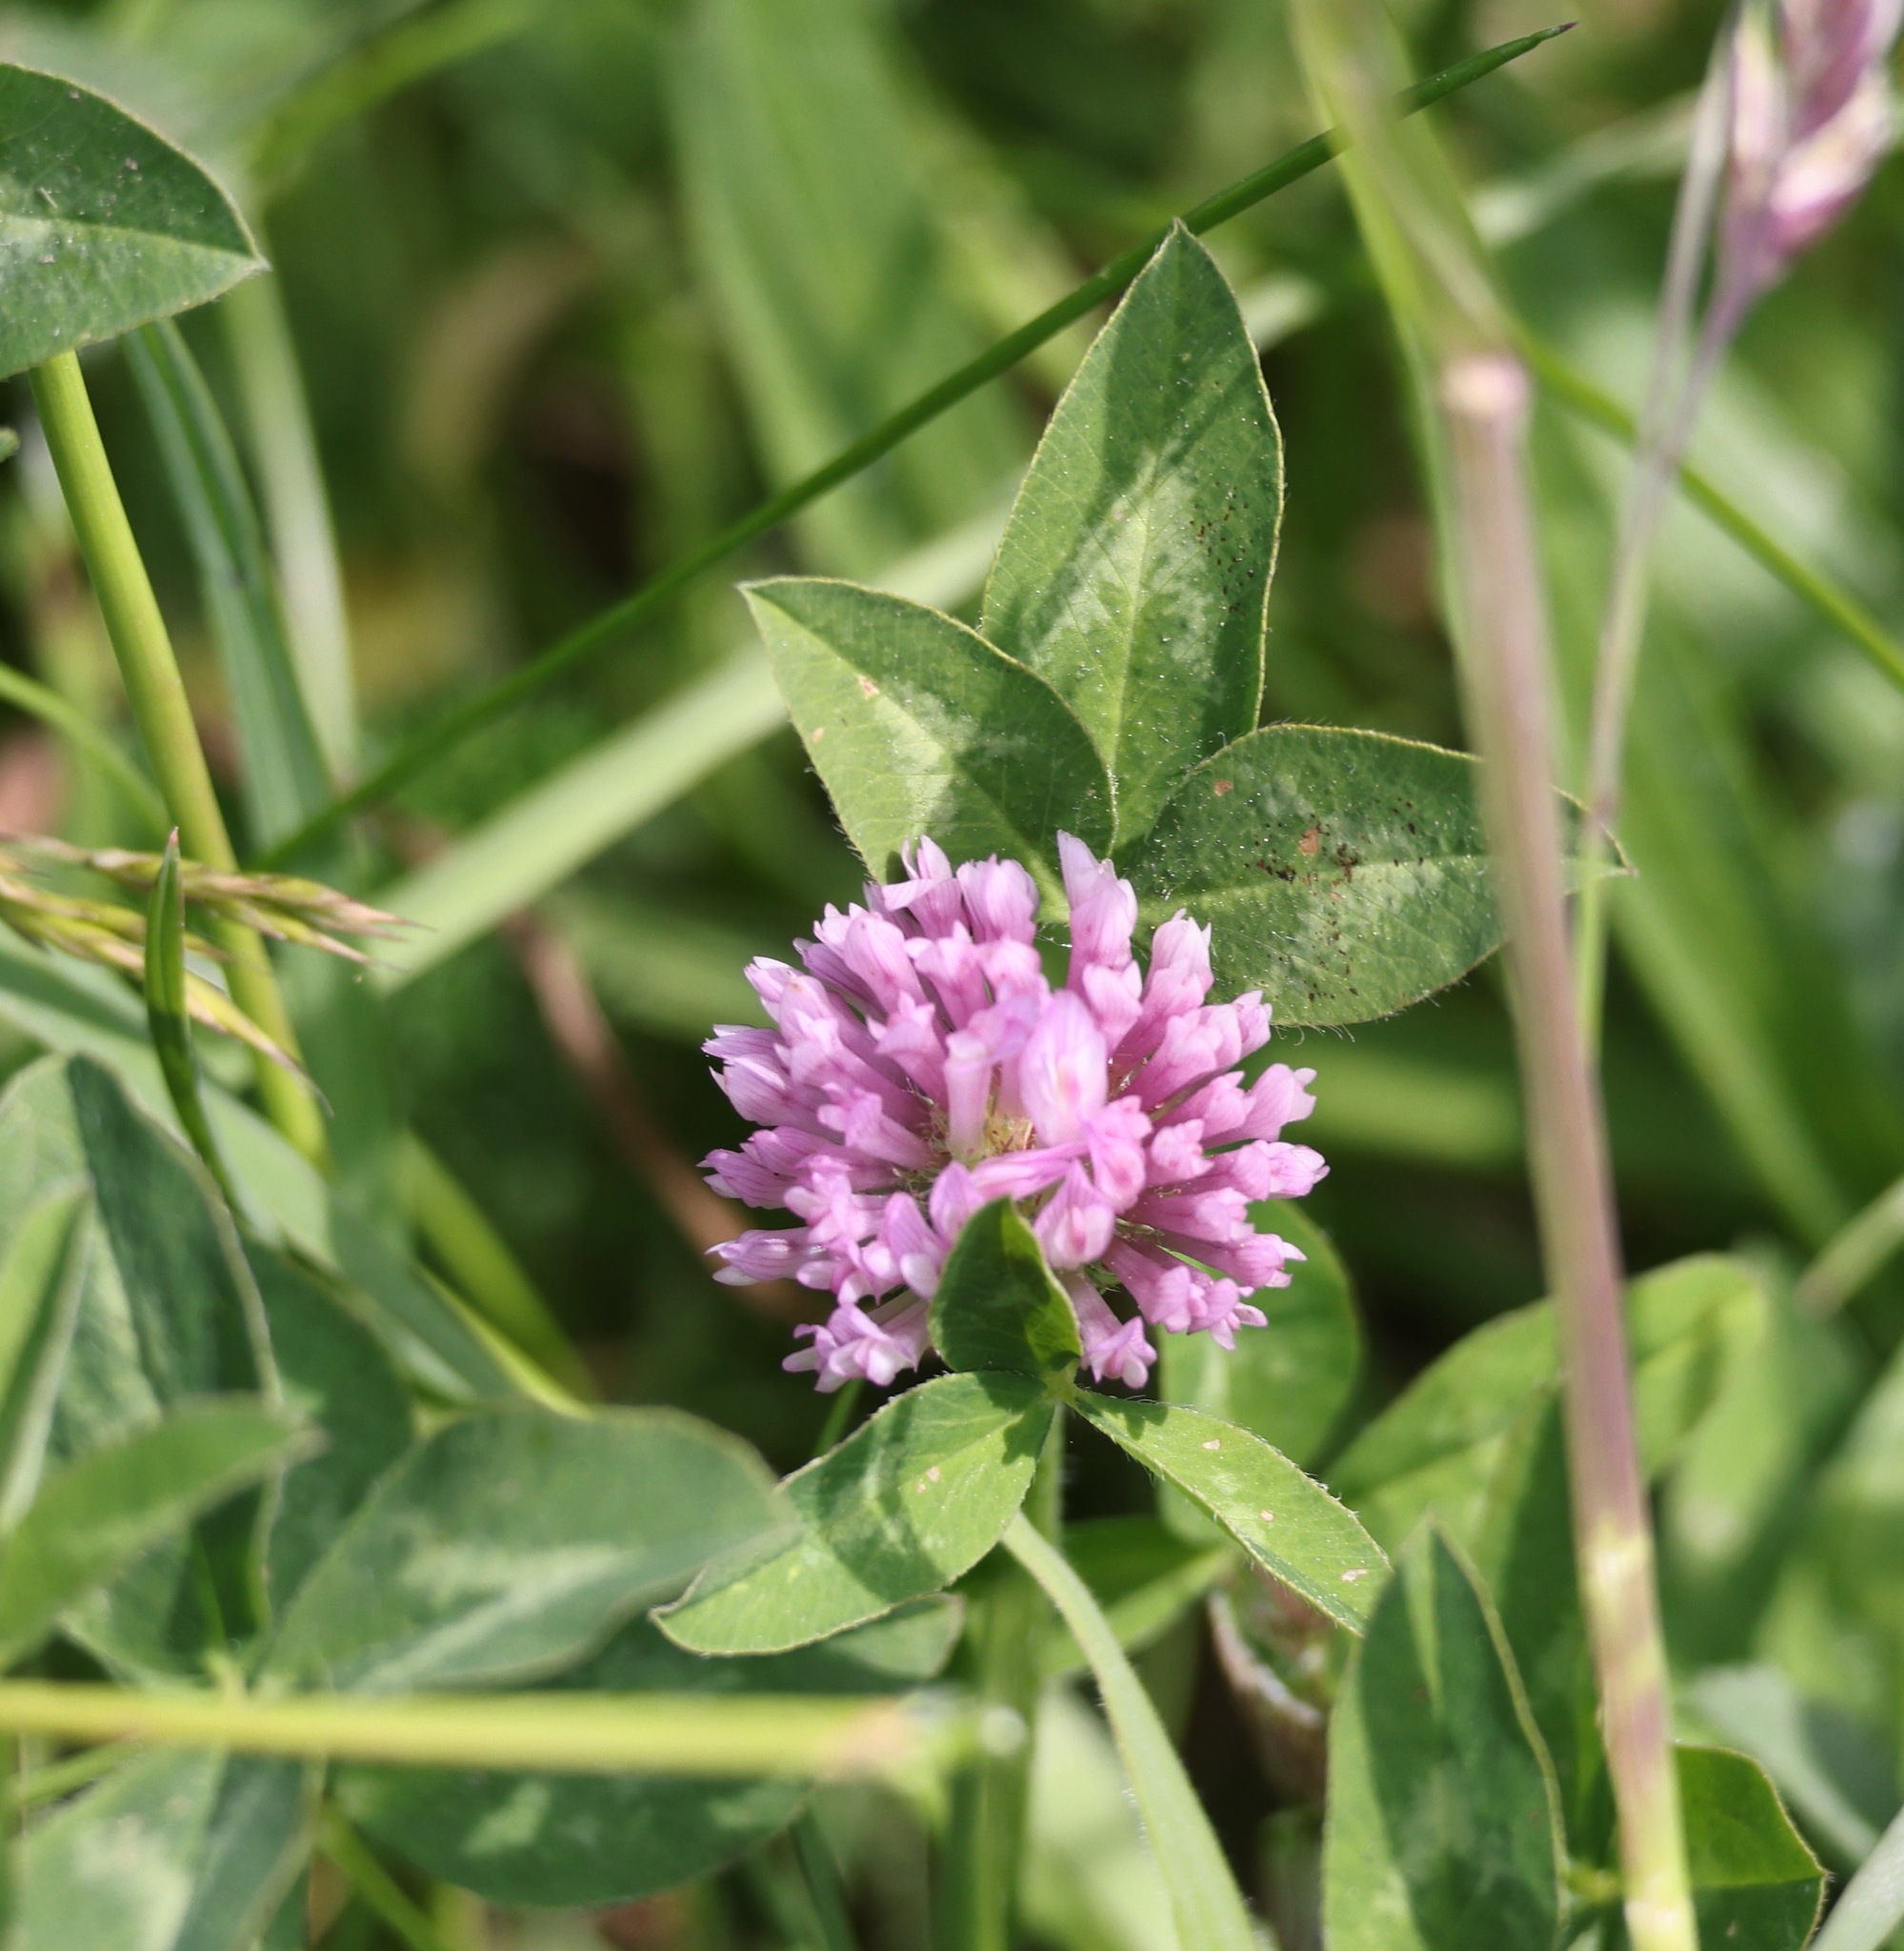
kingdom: Plantae
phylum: Tracheophyta
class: Magnoliopsida
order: Fabales
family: Fabaceae
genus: Trifolium
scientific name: Trifolium pratense
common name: Red clover
